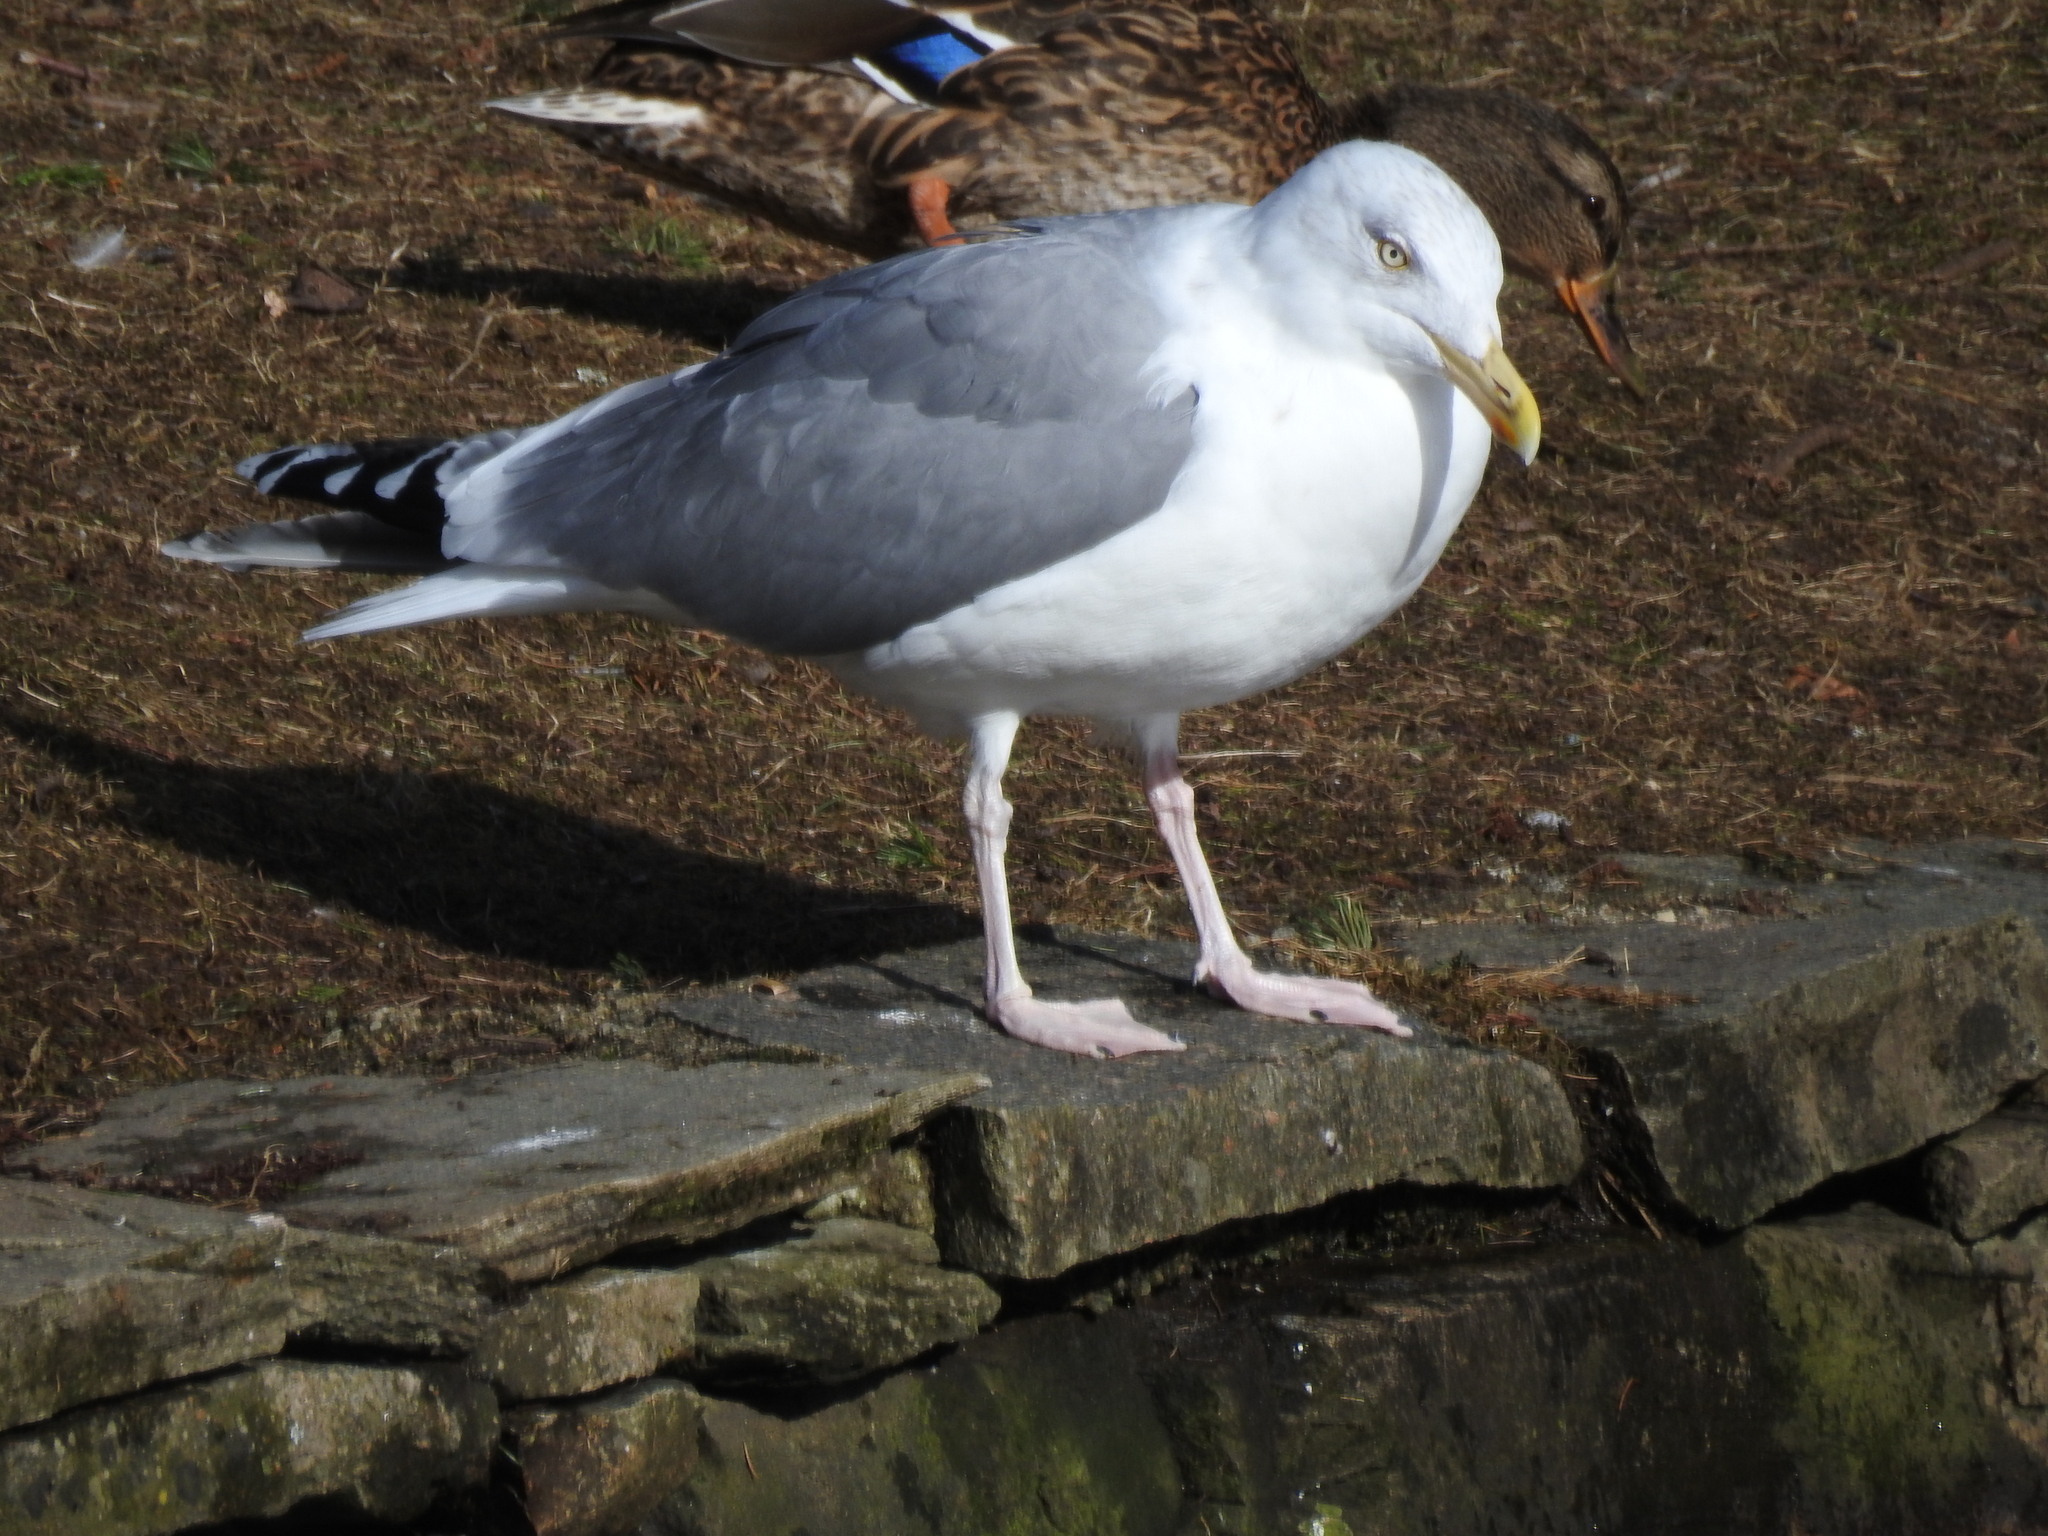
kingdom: Animalia
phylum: Chordata
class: Aves
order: Charadriiformes
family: Laridae
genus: Larus
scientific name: Larus argentatus
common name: Herring gull
